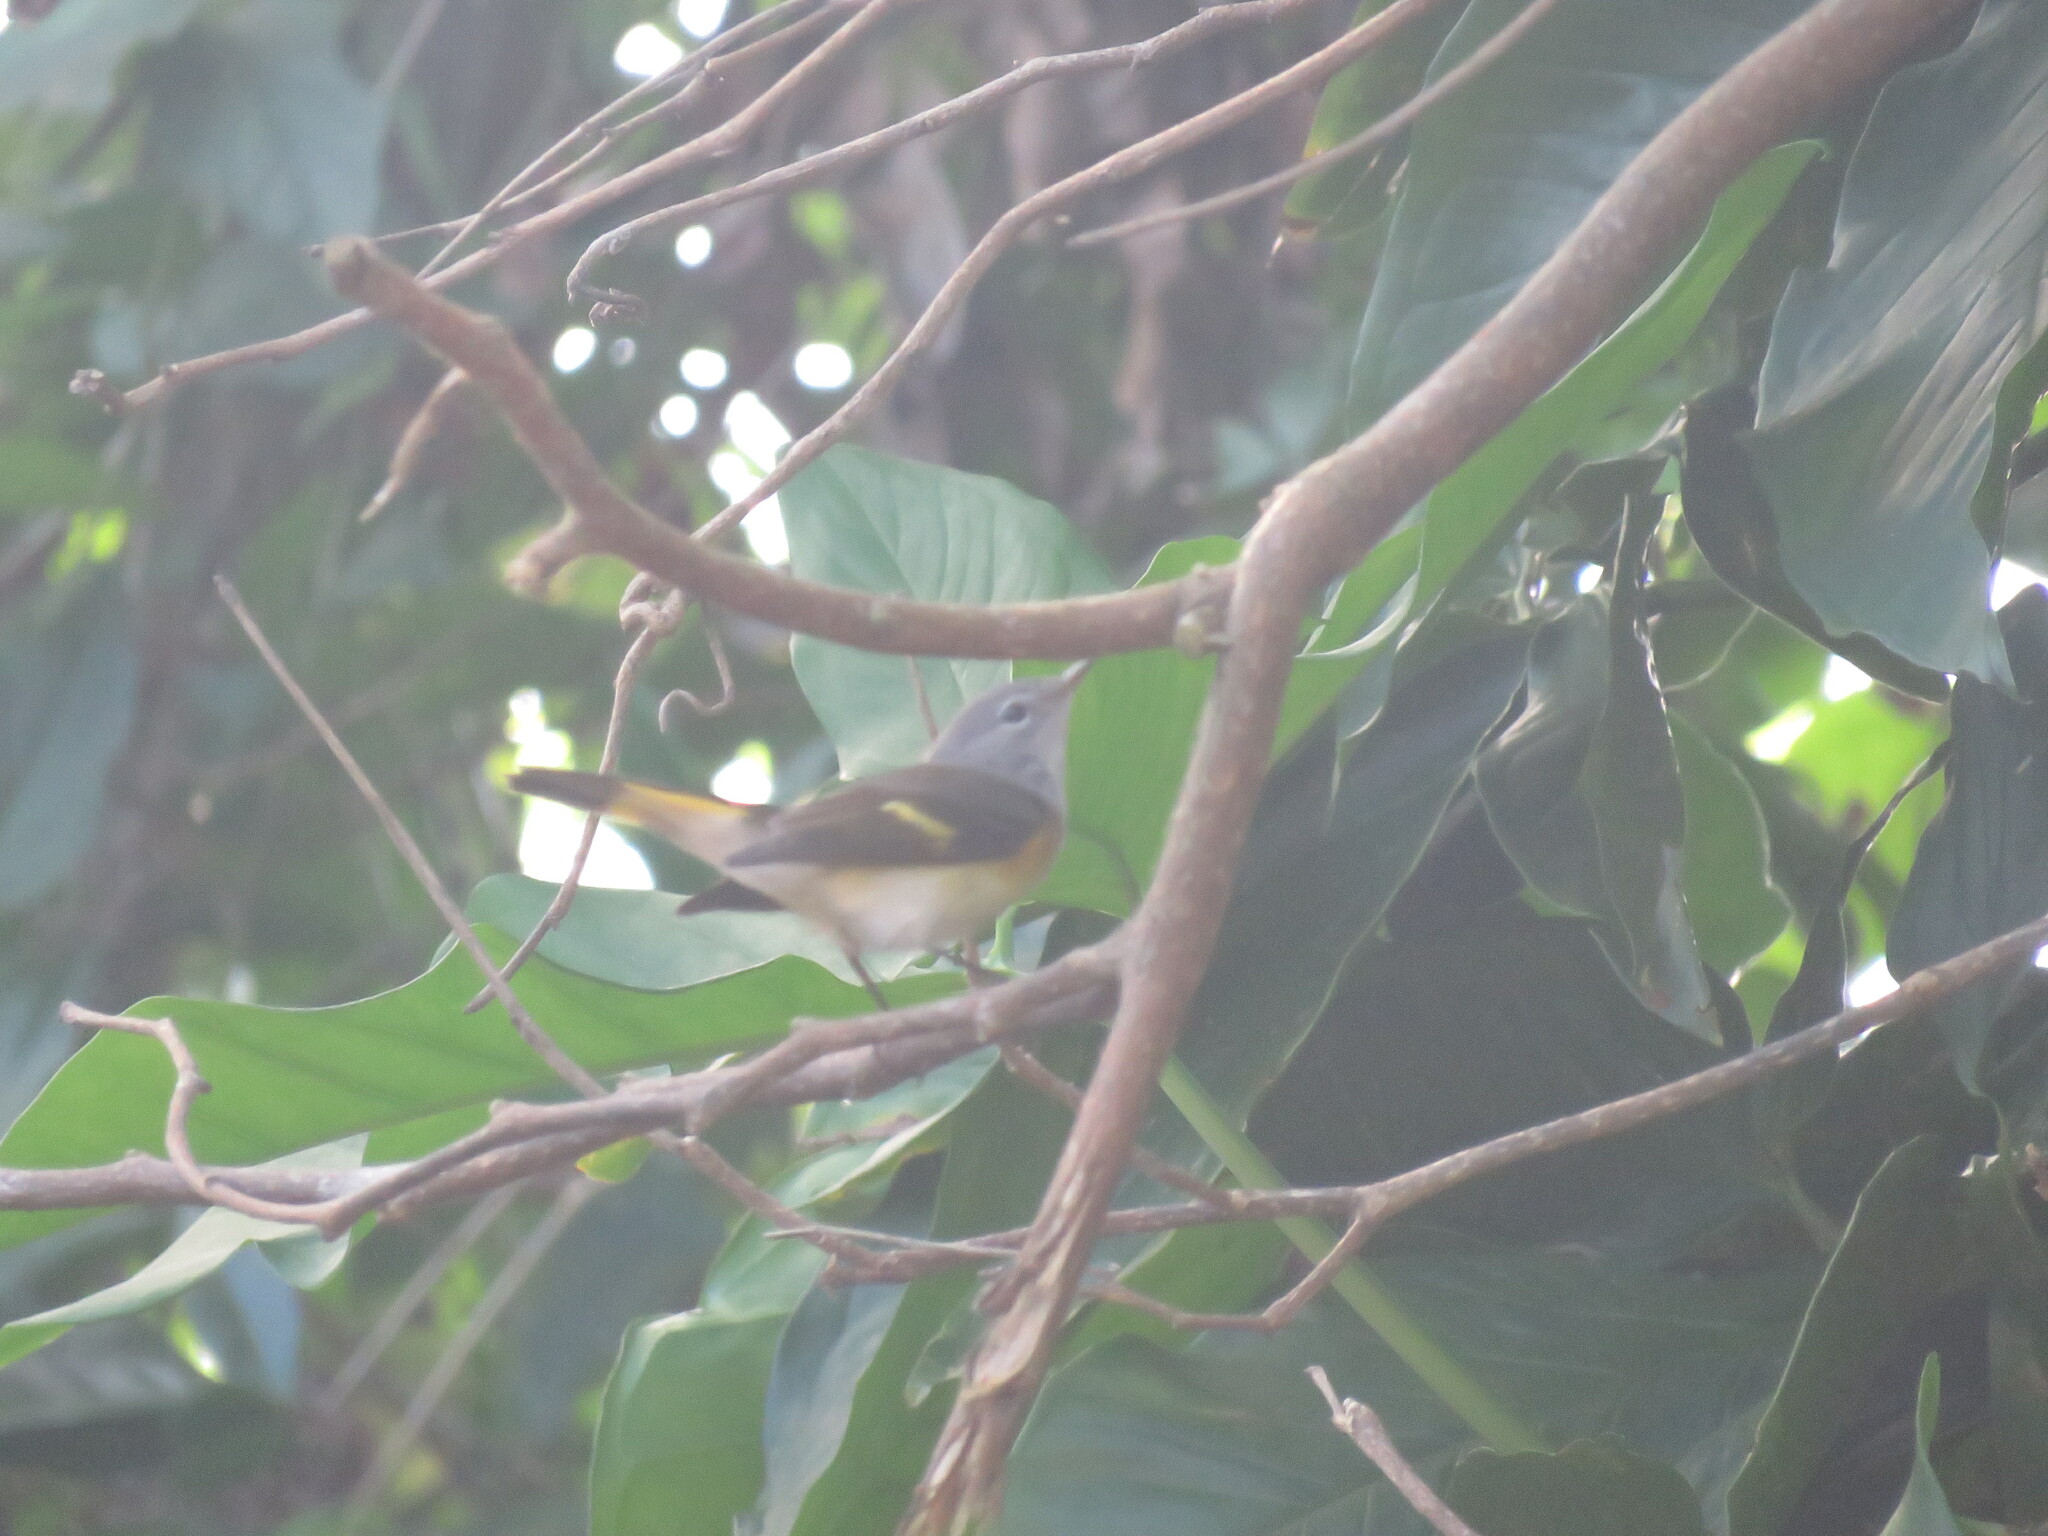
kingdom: Animalia
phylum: Chordata
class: Aves
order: Passeriformes
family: Parulidae
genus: Setophaga
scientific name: Setophaga ruticilla
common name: American redstart
